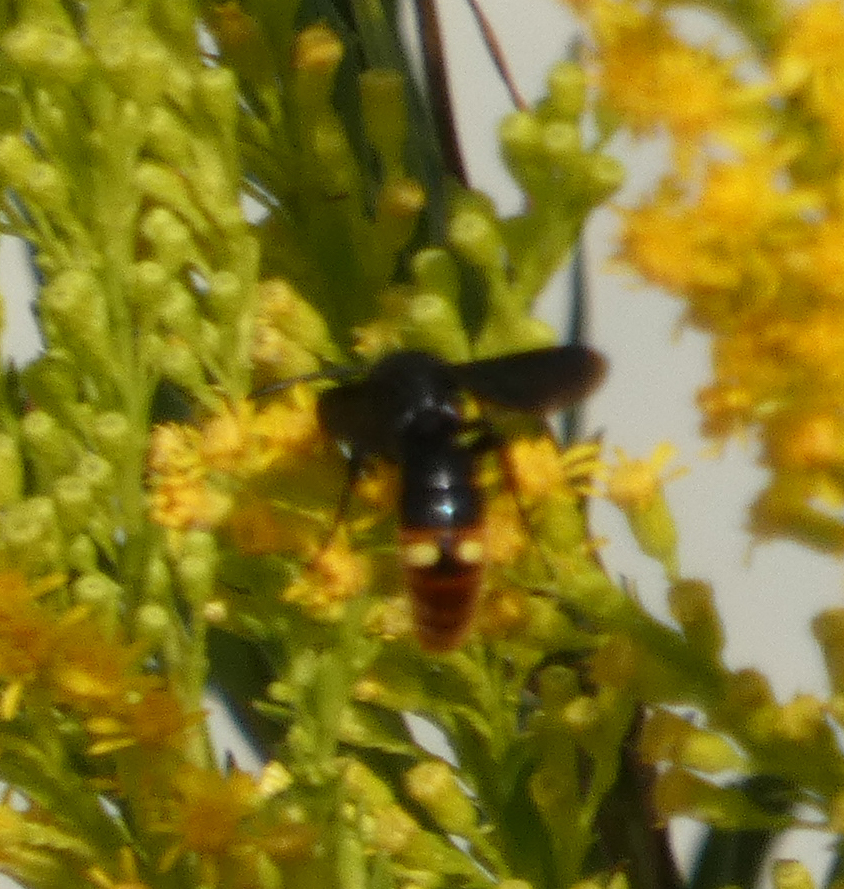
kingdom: Animalia
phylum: Arthropoda
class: Insecta
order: Hymenoptera
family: Scoliidae
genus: Scolia
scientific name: Scolia dubia
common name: Blue-winged scoliid wasp
